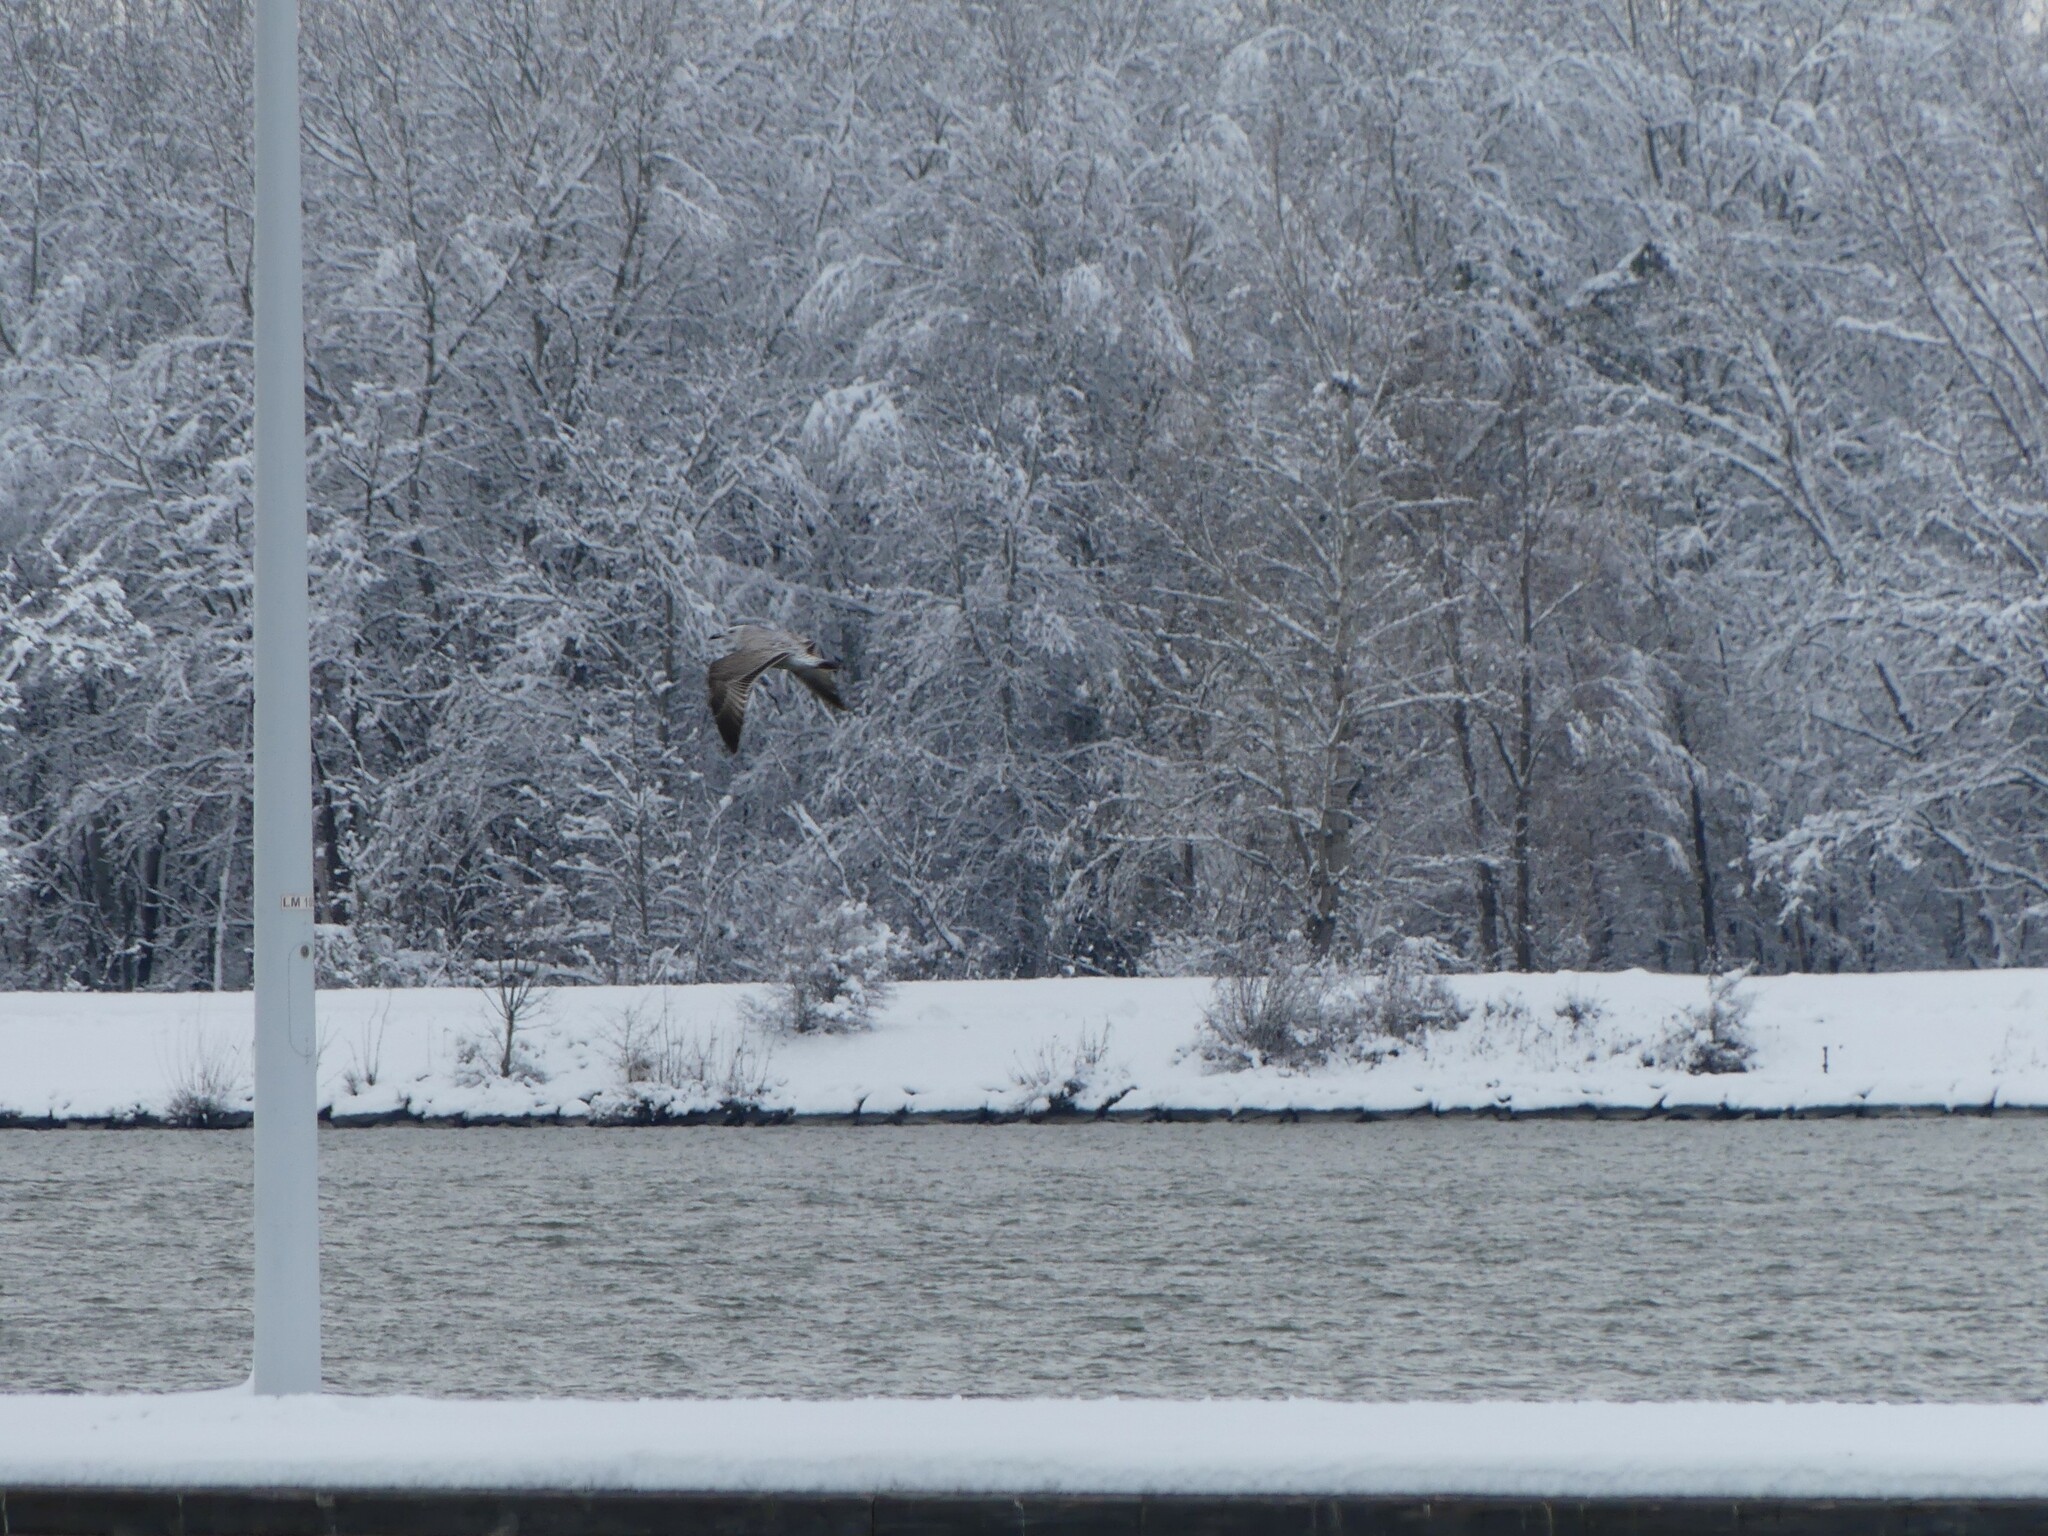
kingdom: Animalia
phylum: Chordata
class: Aves
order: Charadriiformes
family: Laridae
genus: Larus
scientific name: Larus cachinnans
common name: Caspian gull
